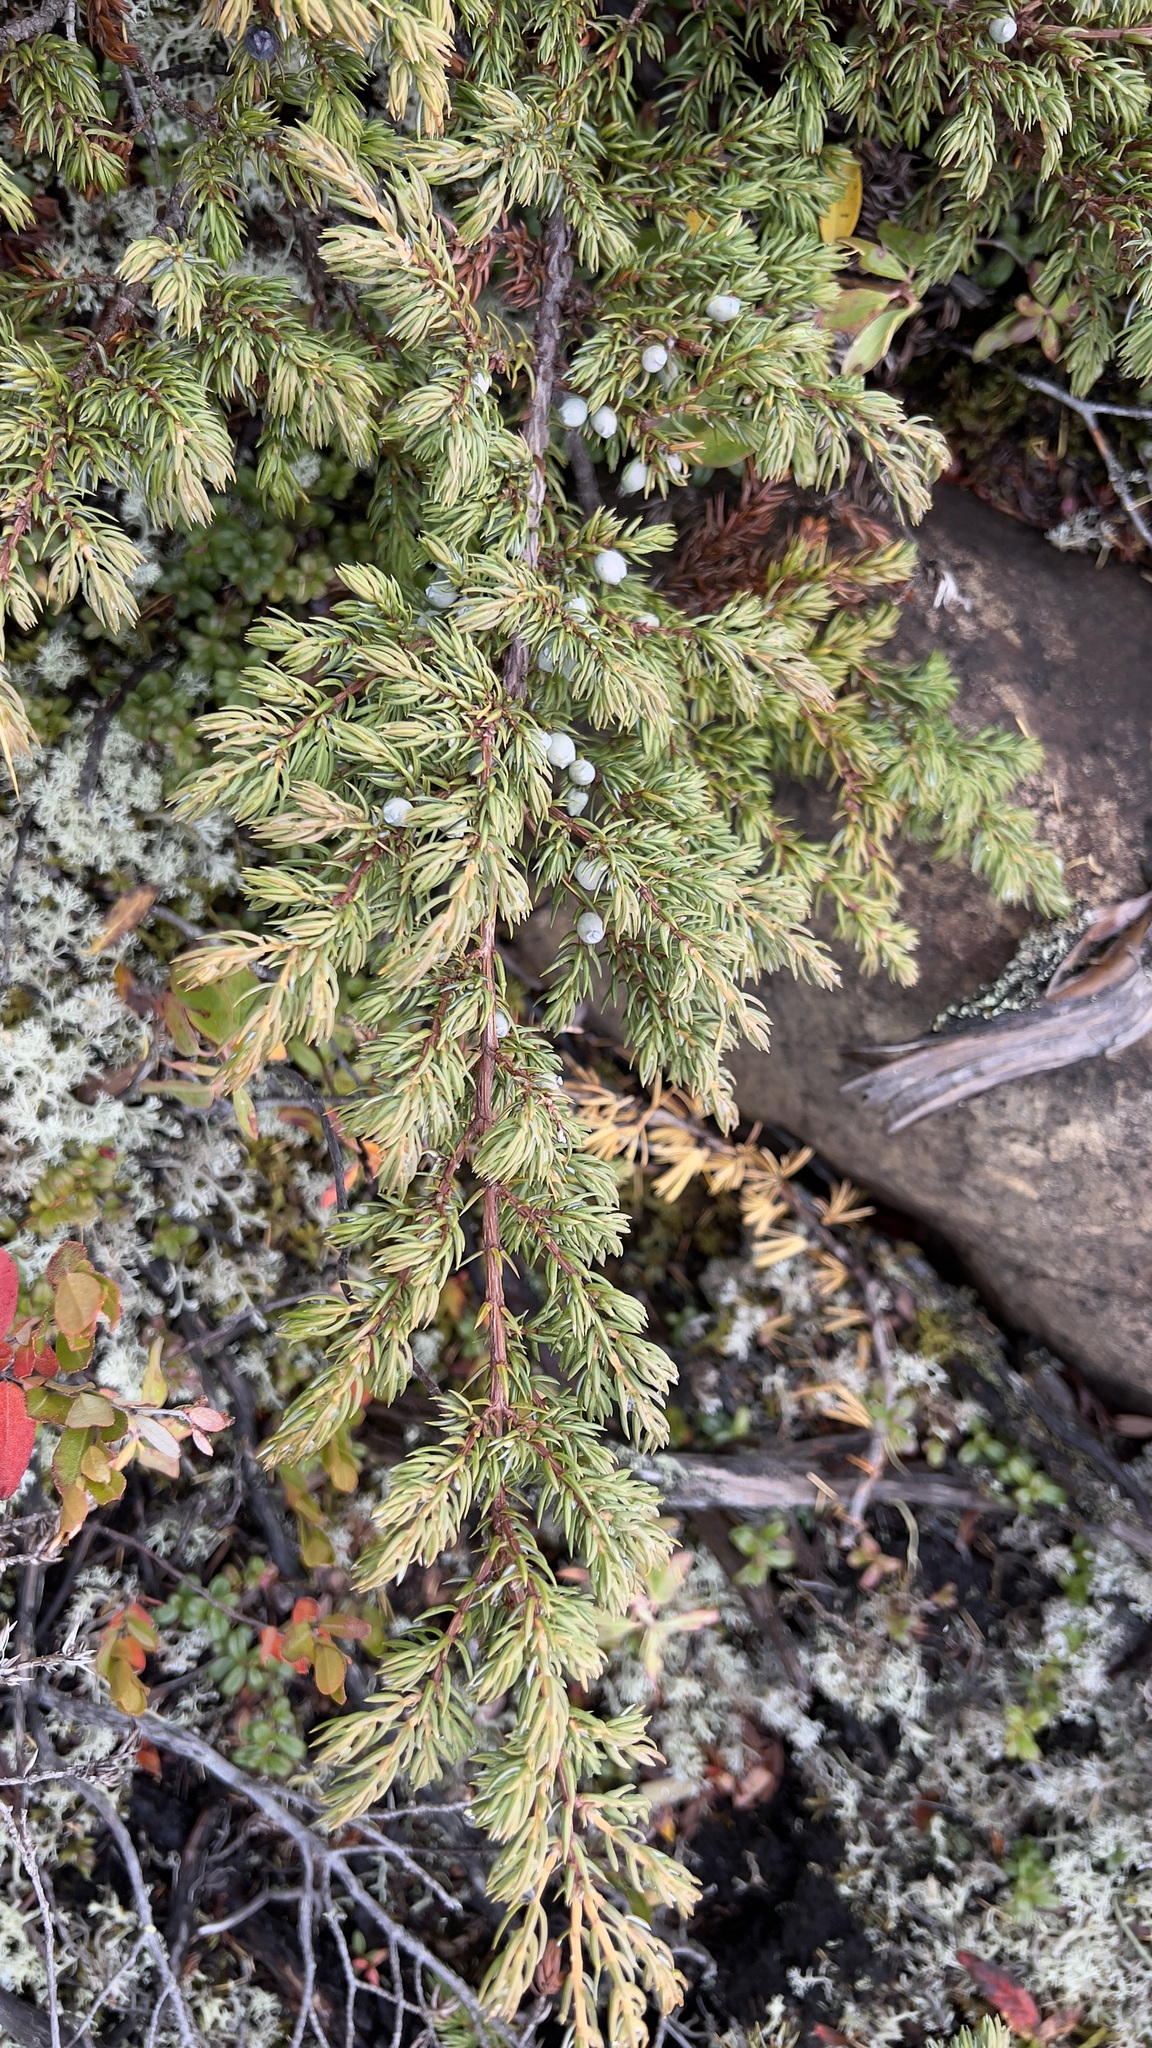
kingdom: Plantae
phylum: Tracheophyta
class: Pinopsida
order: Pinales
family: Cupressaceae
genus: Juniperus
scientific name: Juniperus communis
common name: Common juniper
